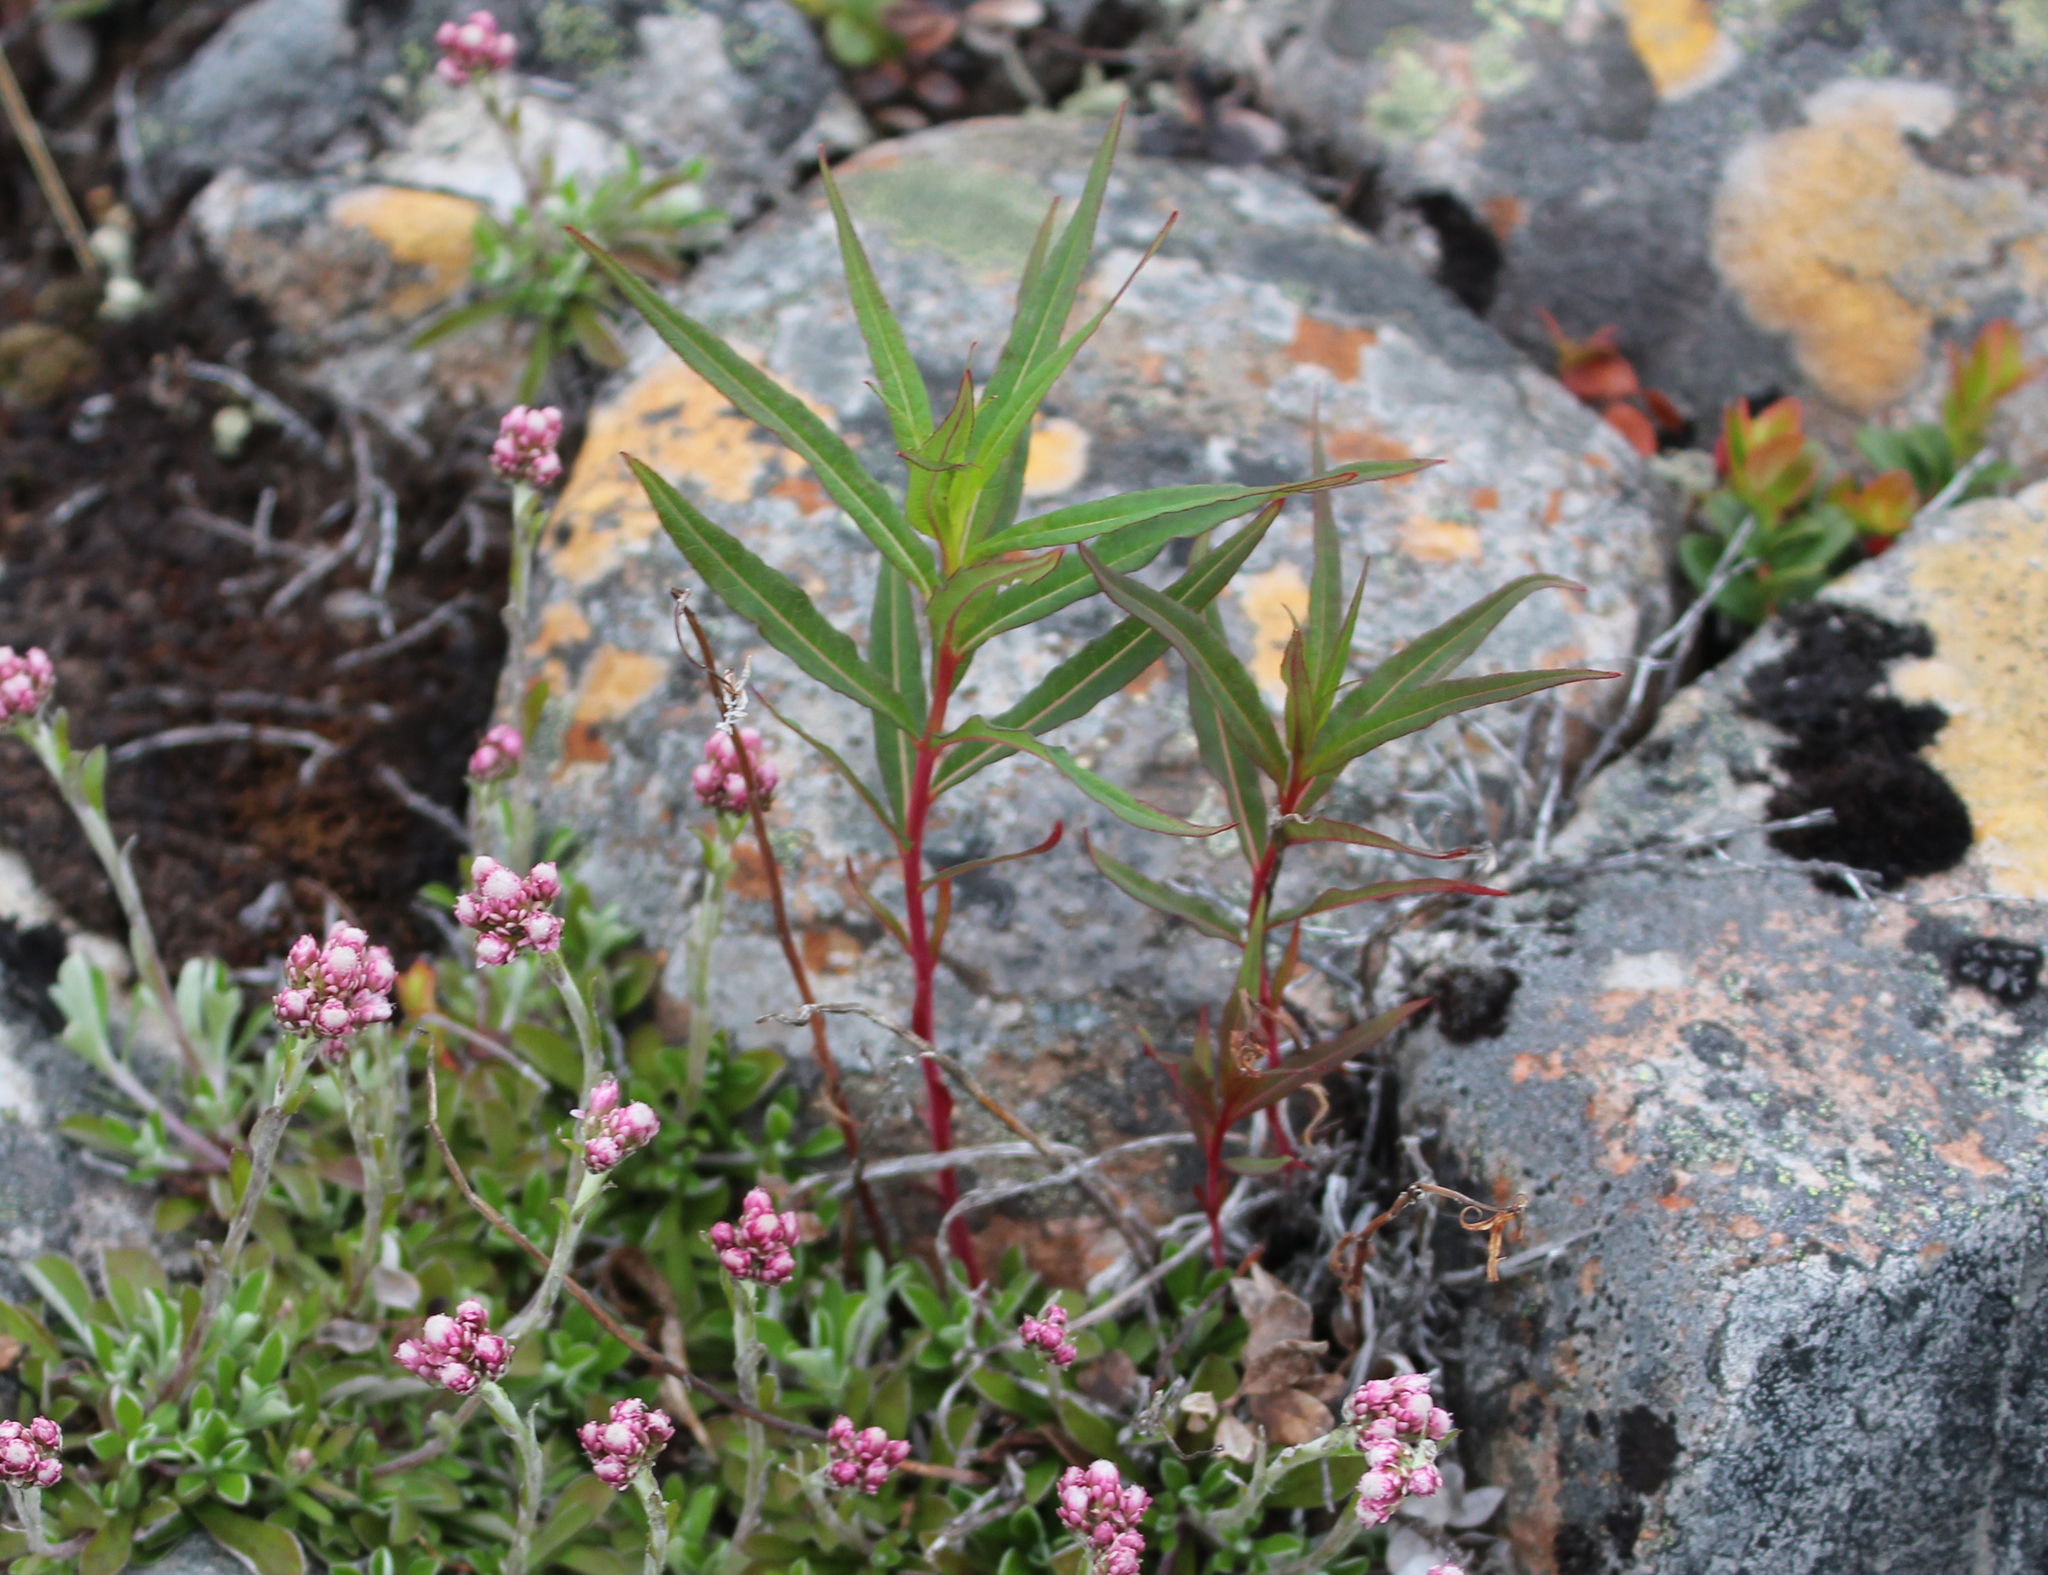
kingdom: Plantae
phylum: Tracheophyta
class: Magnoliopsida
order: Myrtales
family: Onagraceae
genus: Chamaenerion
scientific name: Chamaenerion angustifolium
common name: Fireweed
